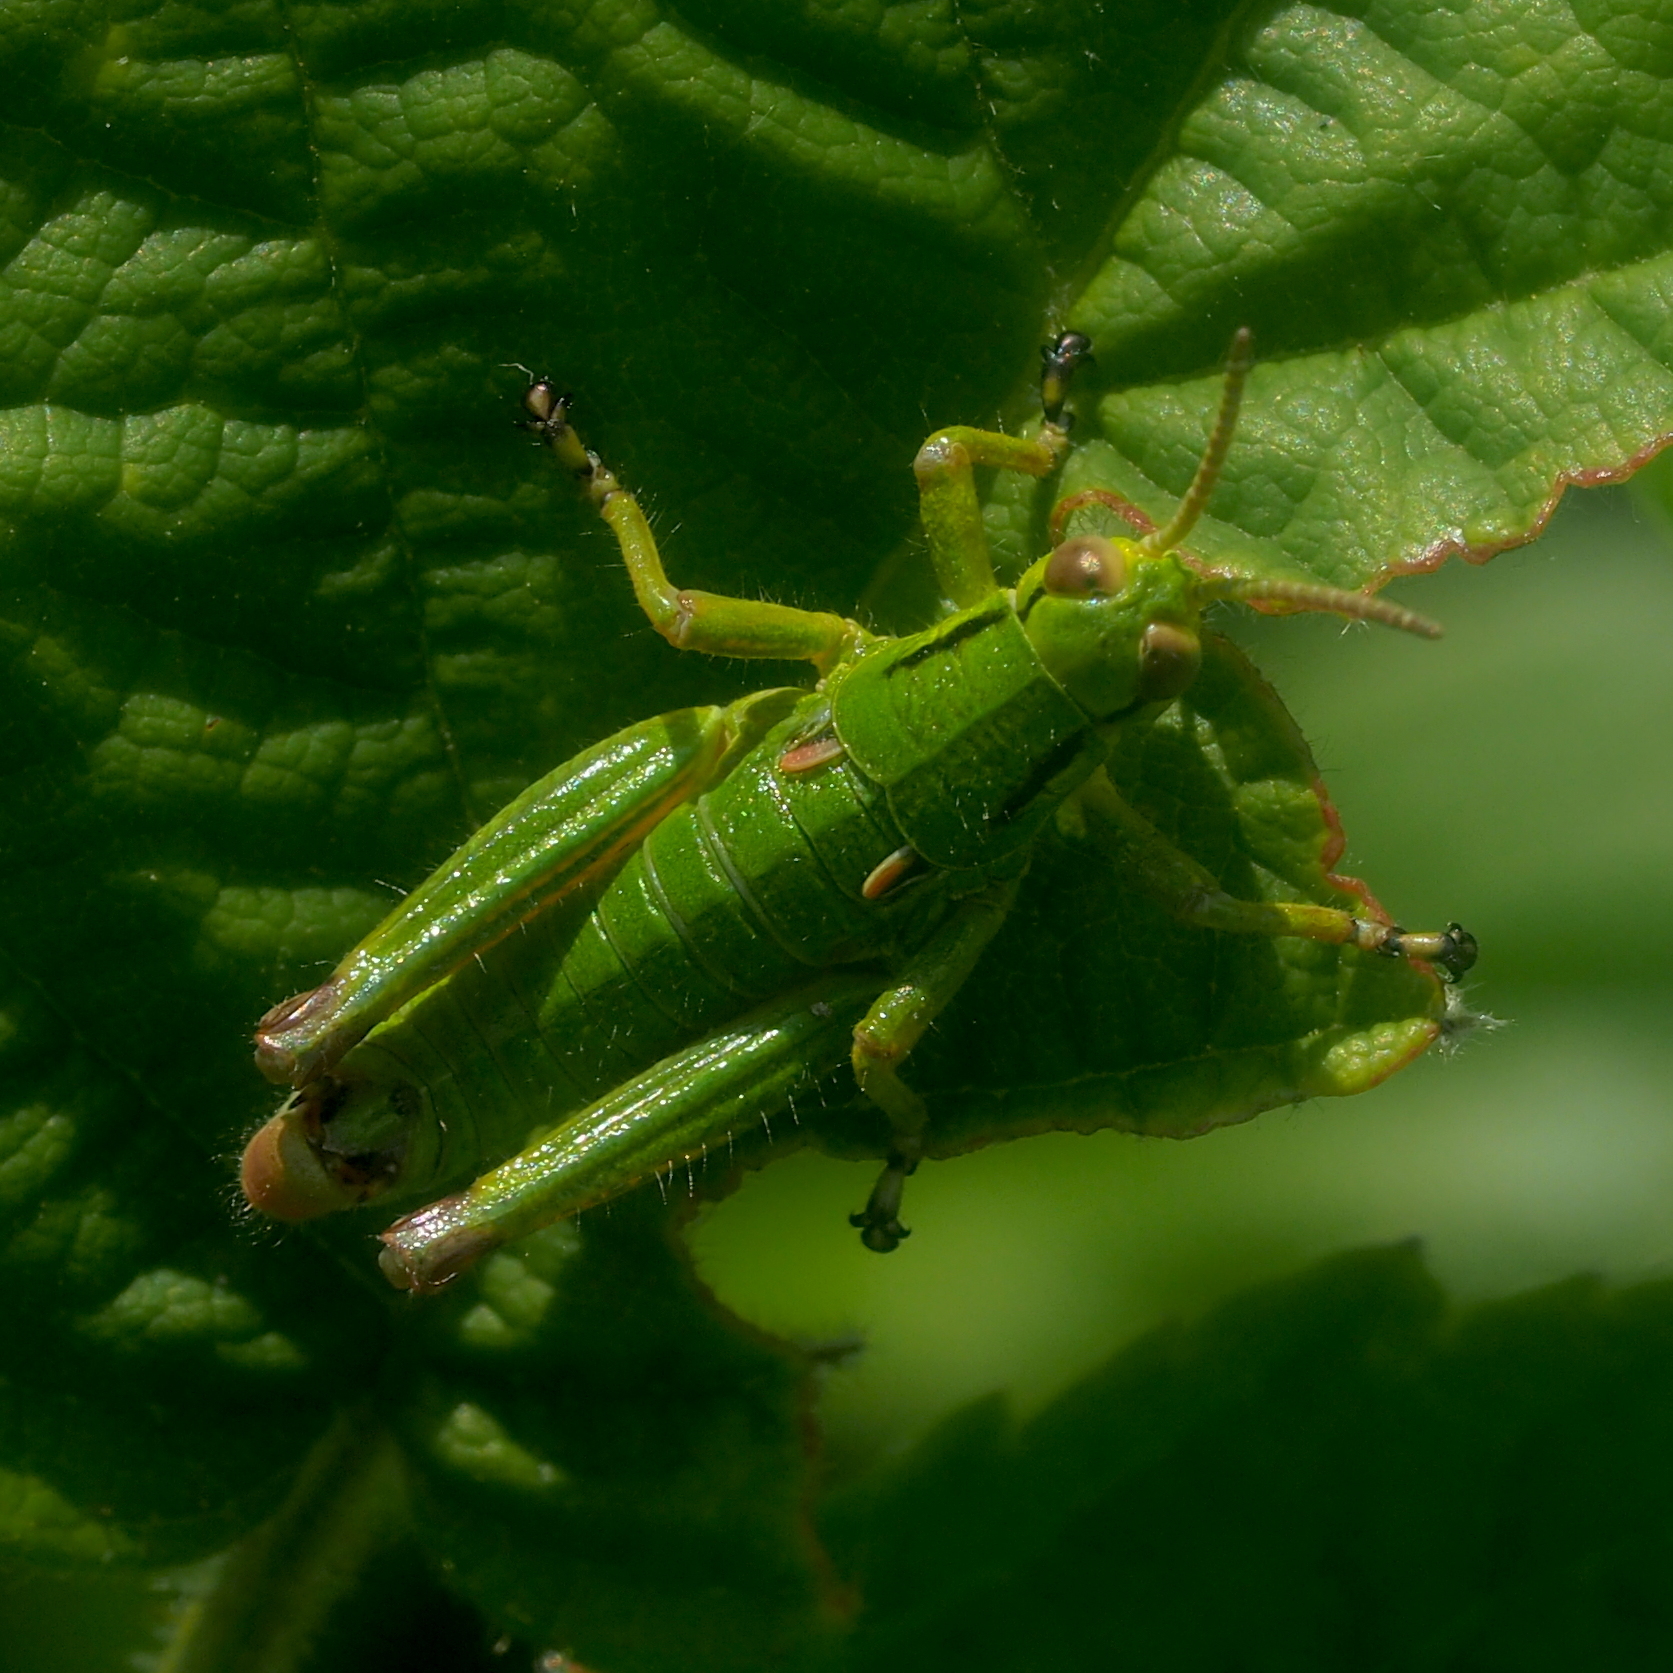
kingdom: Animalia
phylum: Arthropoda
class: Insecta
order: Orthoptera
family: Acrididae
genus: Odontopodisma
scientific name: Odontopodisma decipiens
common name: Cheating mountain grasshopper
